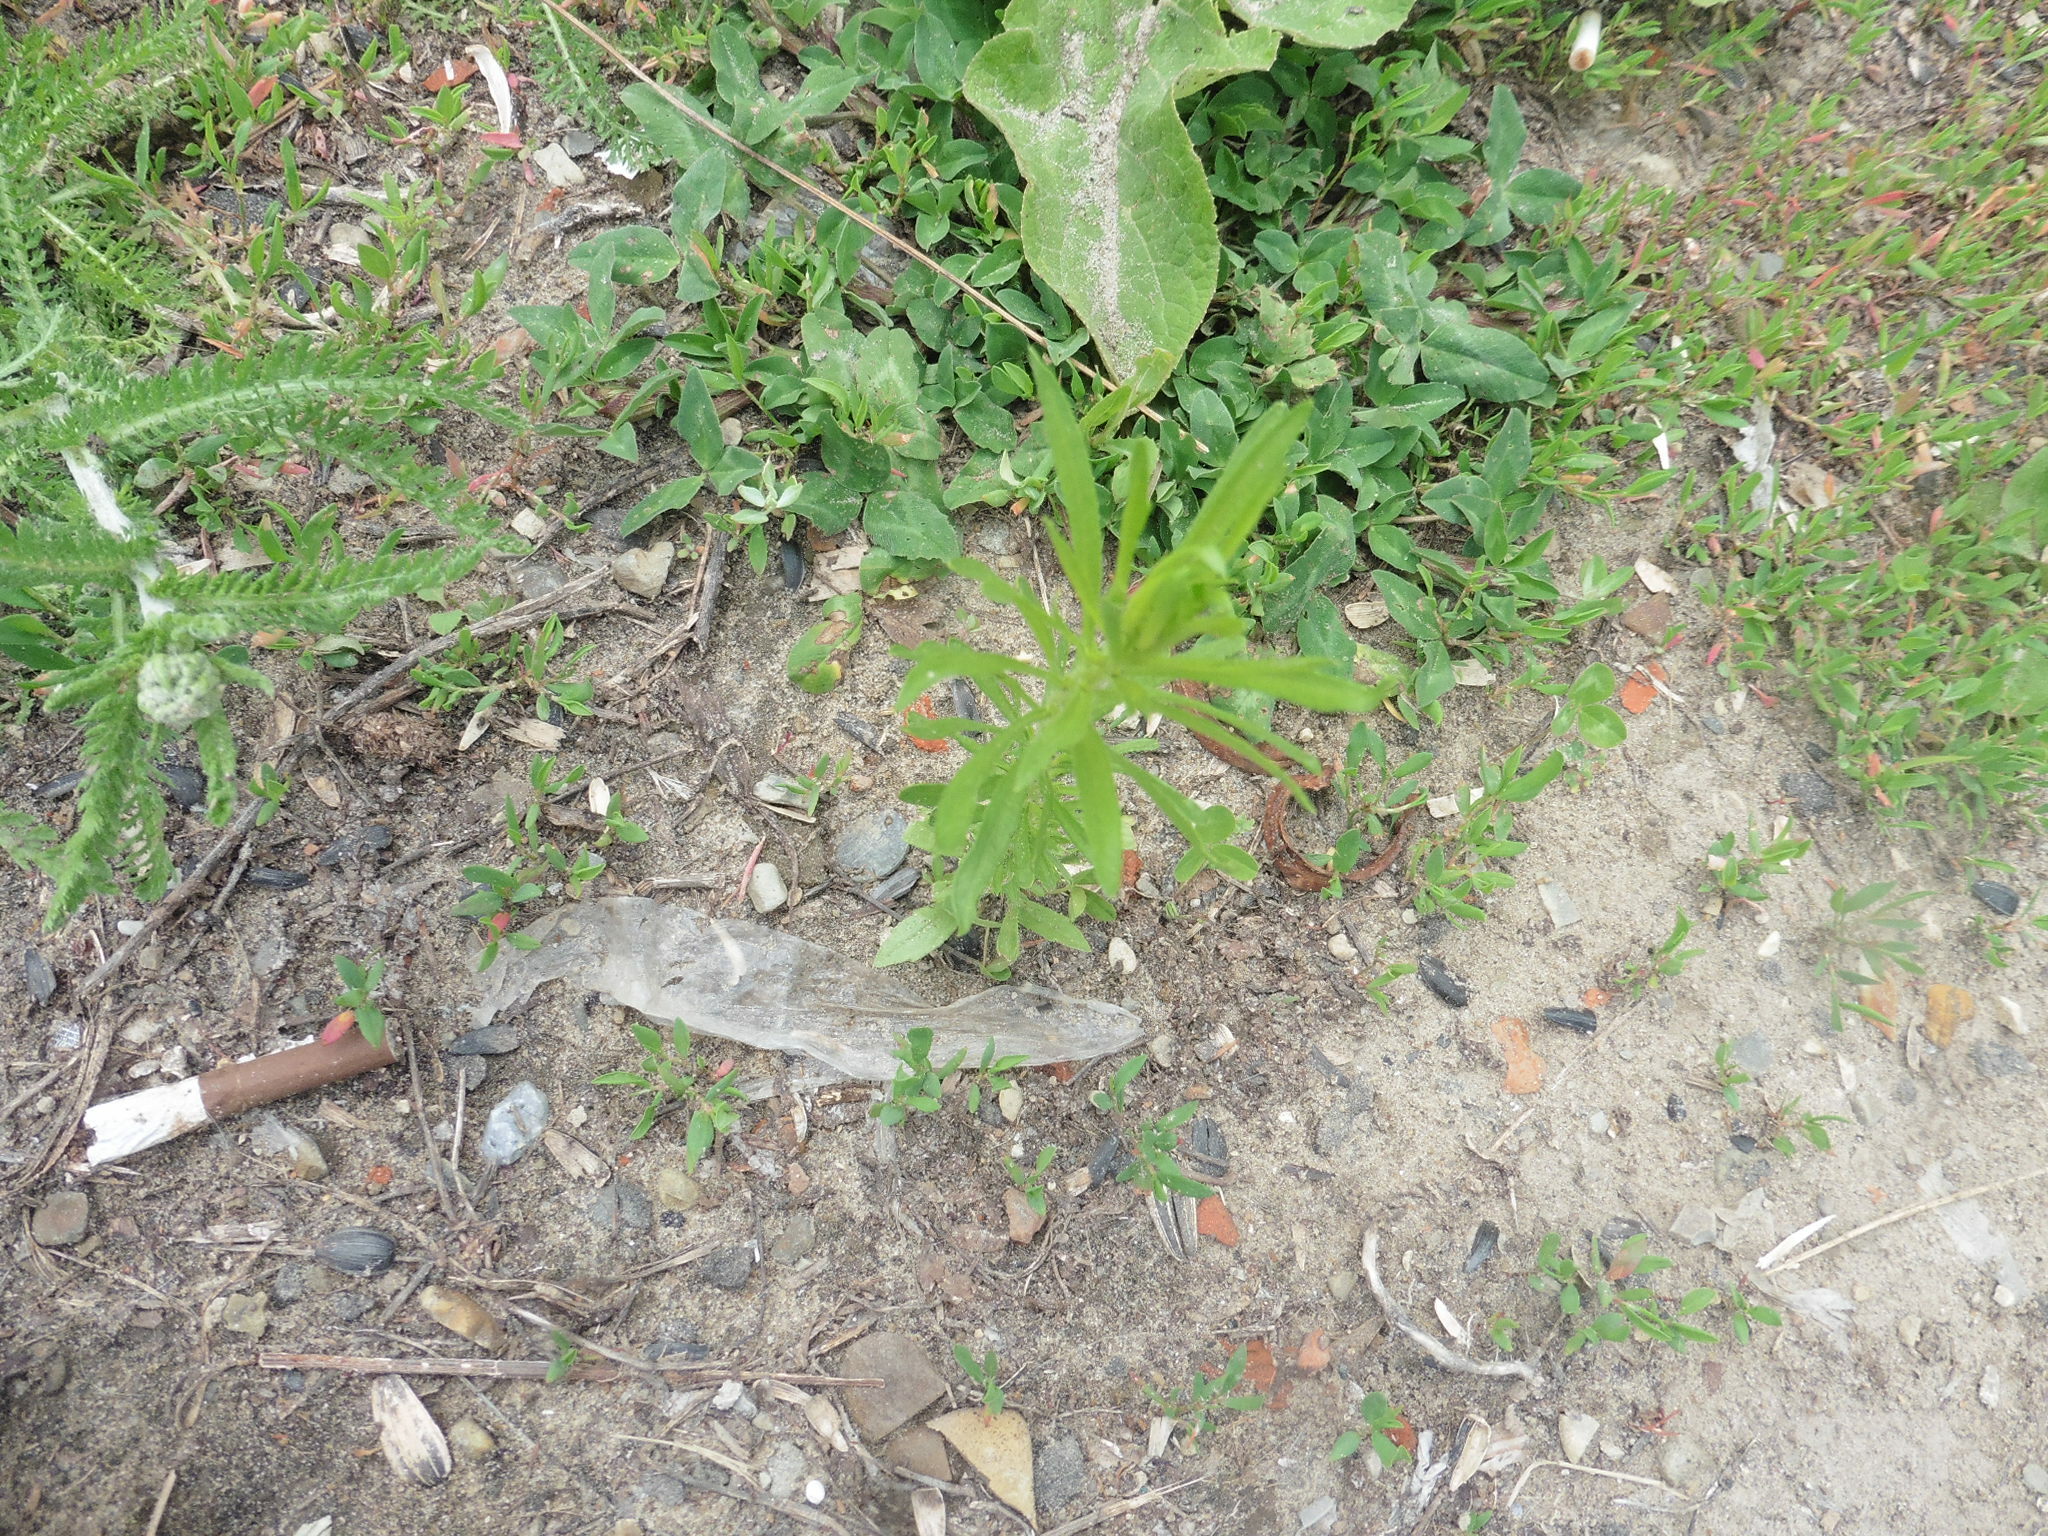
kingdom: Plantae
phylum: Tracheophyta
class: Magnoliopsida
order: Asterales
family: Asteraceae
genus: Erigeron
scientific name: Erigeron canadensis
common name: Canadian fleabane
